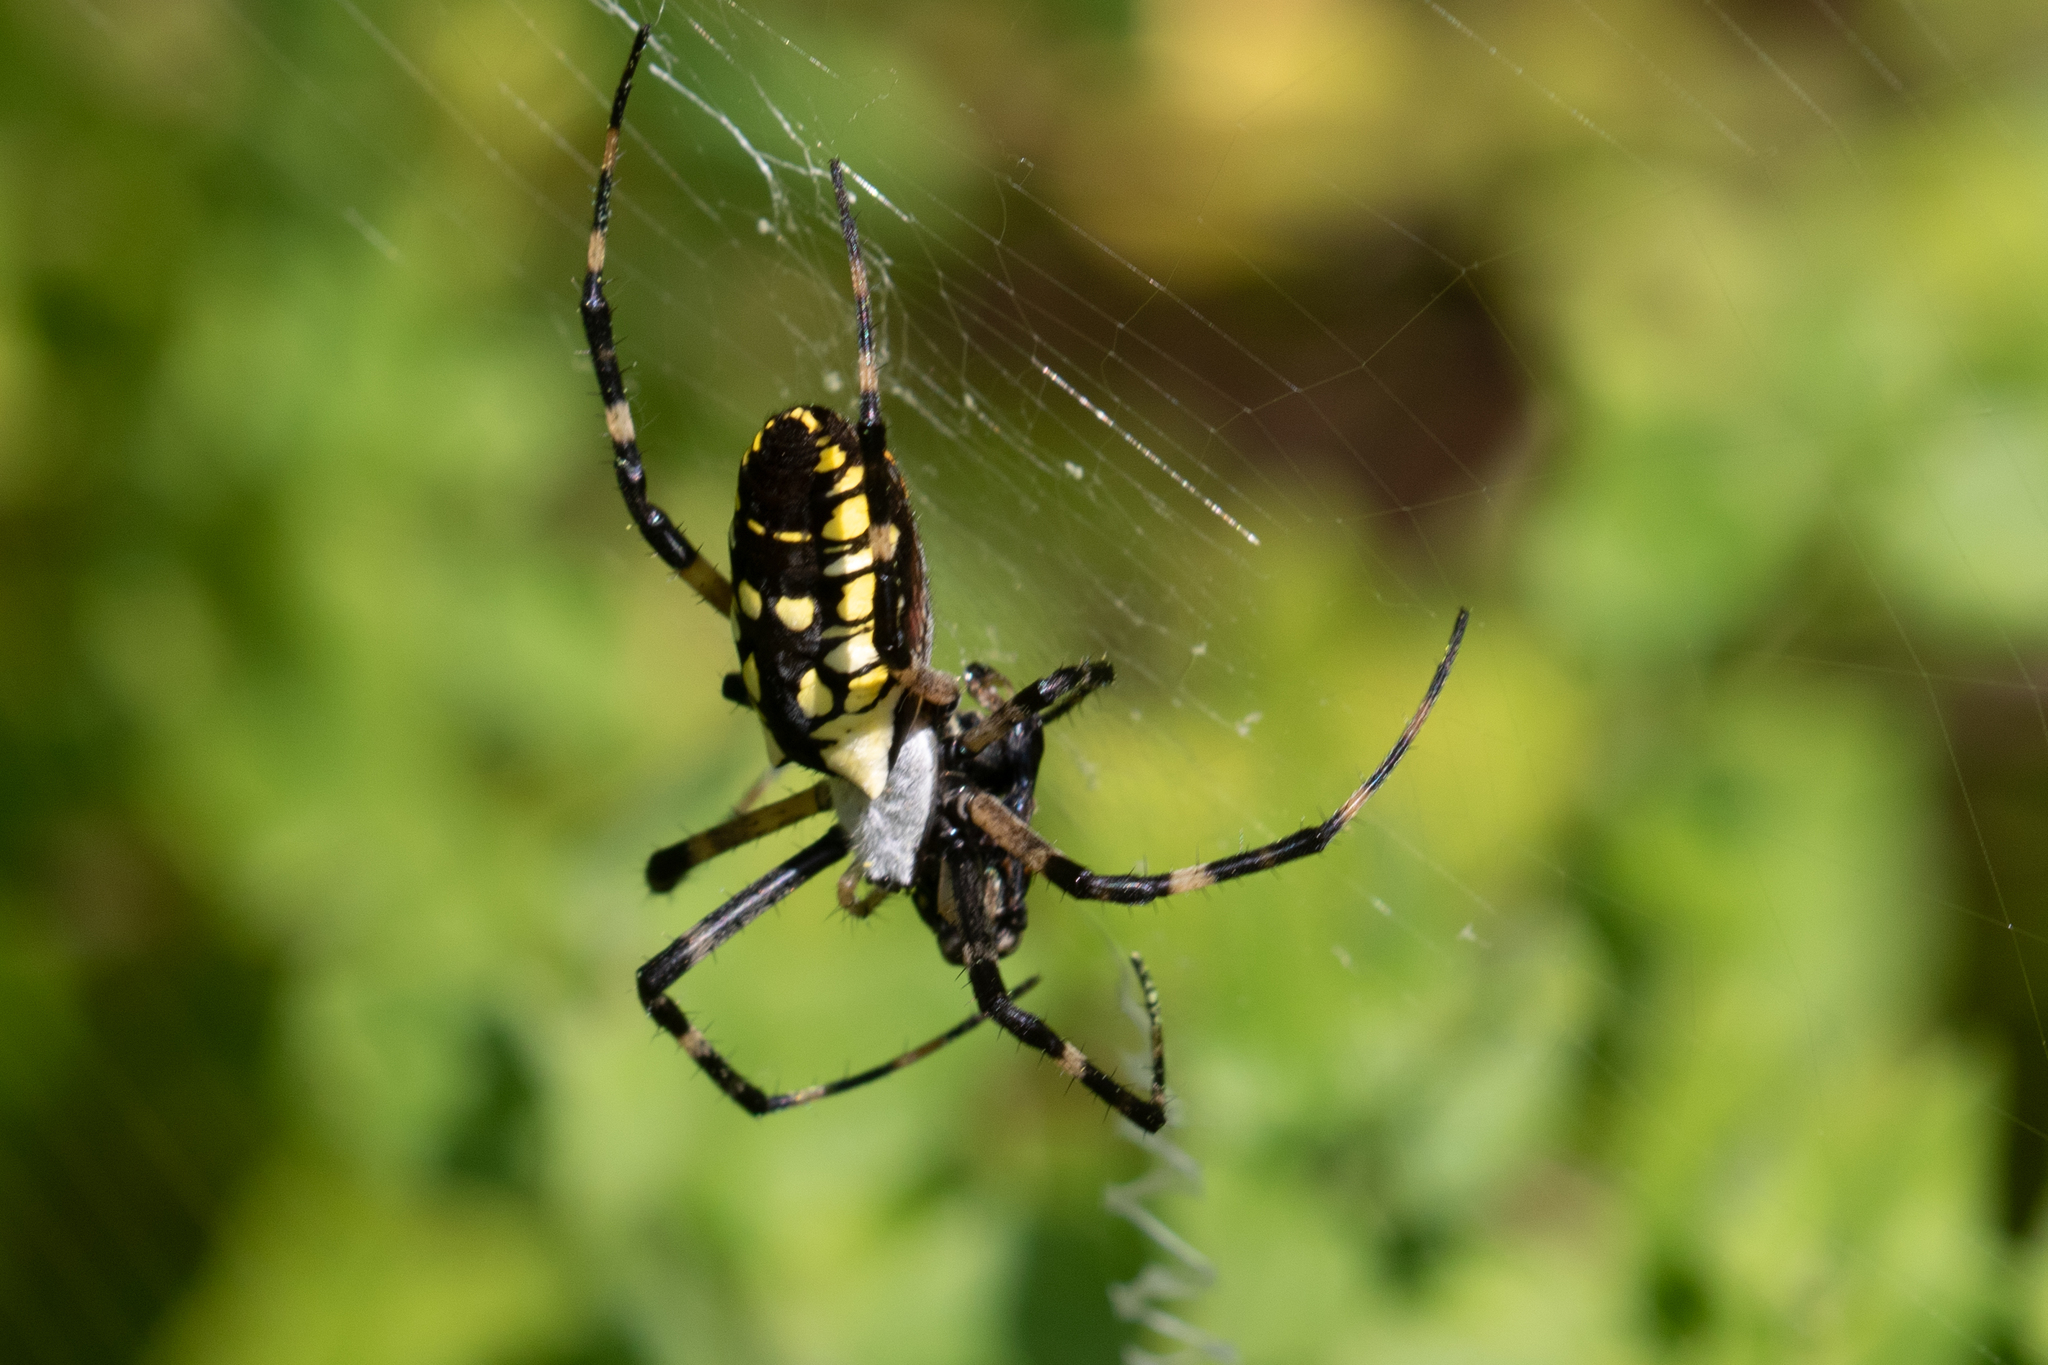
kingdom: Animalia
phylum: Arthropoda
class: Arachnida
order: Araneae
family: Araneidae
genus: Argiope
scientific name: Argiope aurantia
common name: Orb weavers
